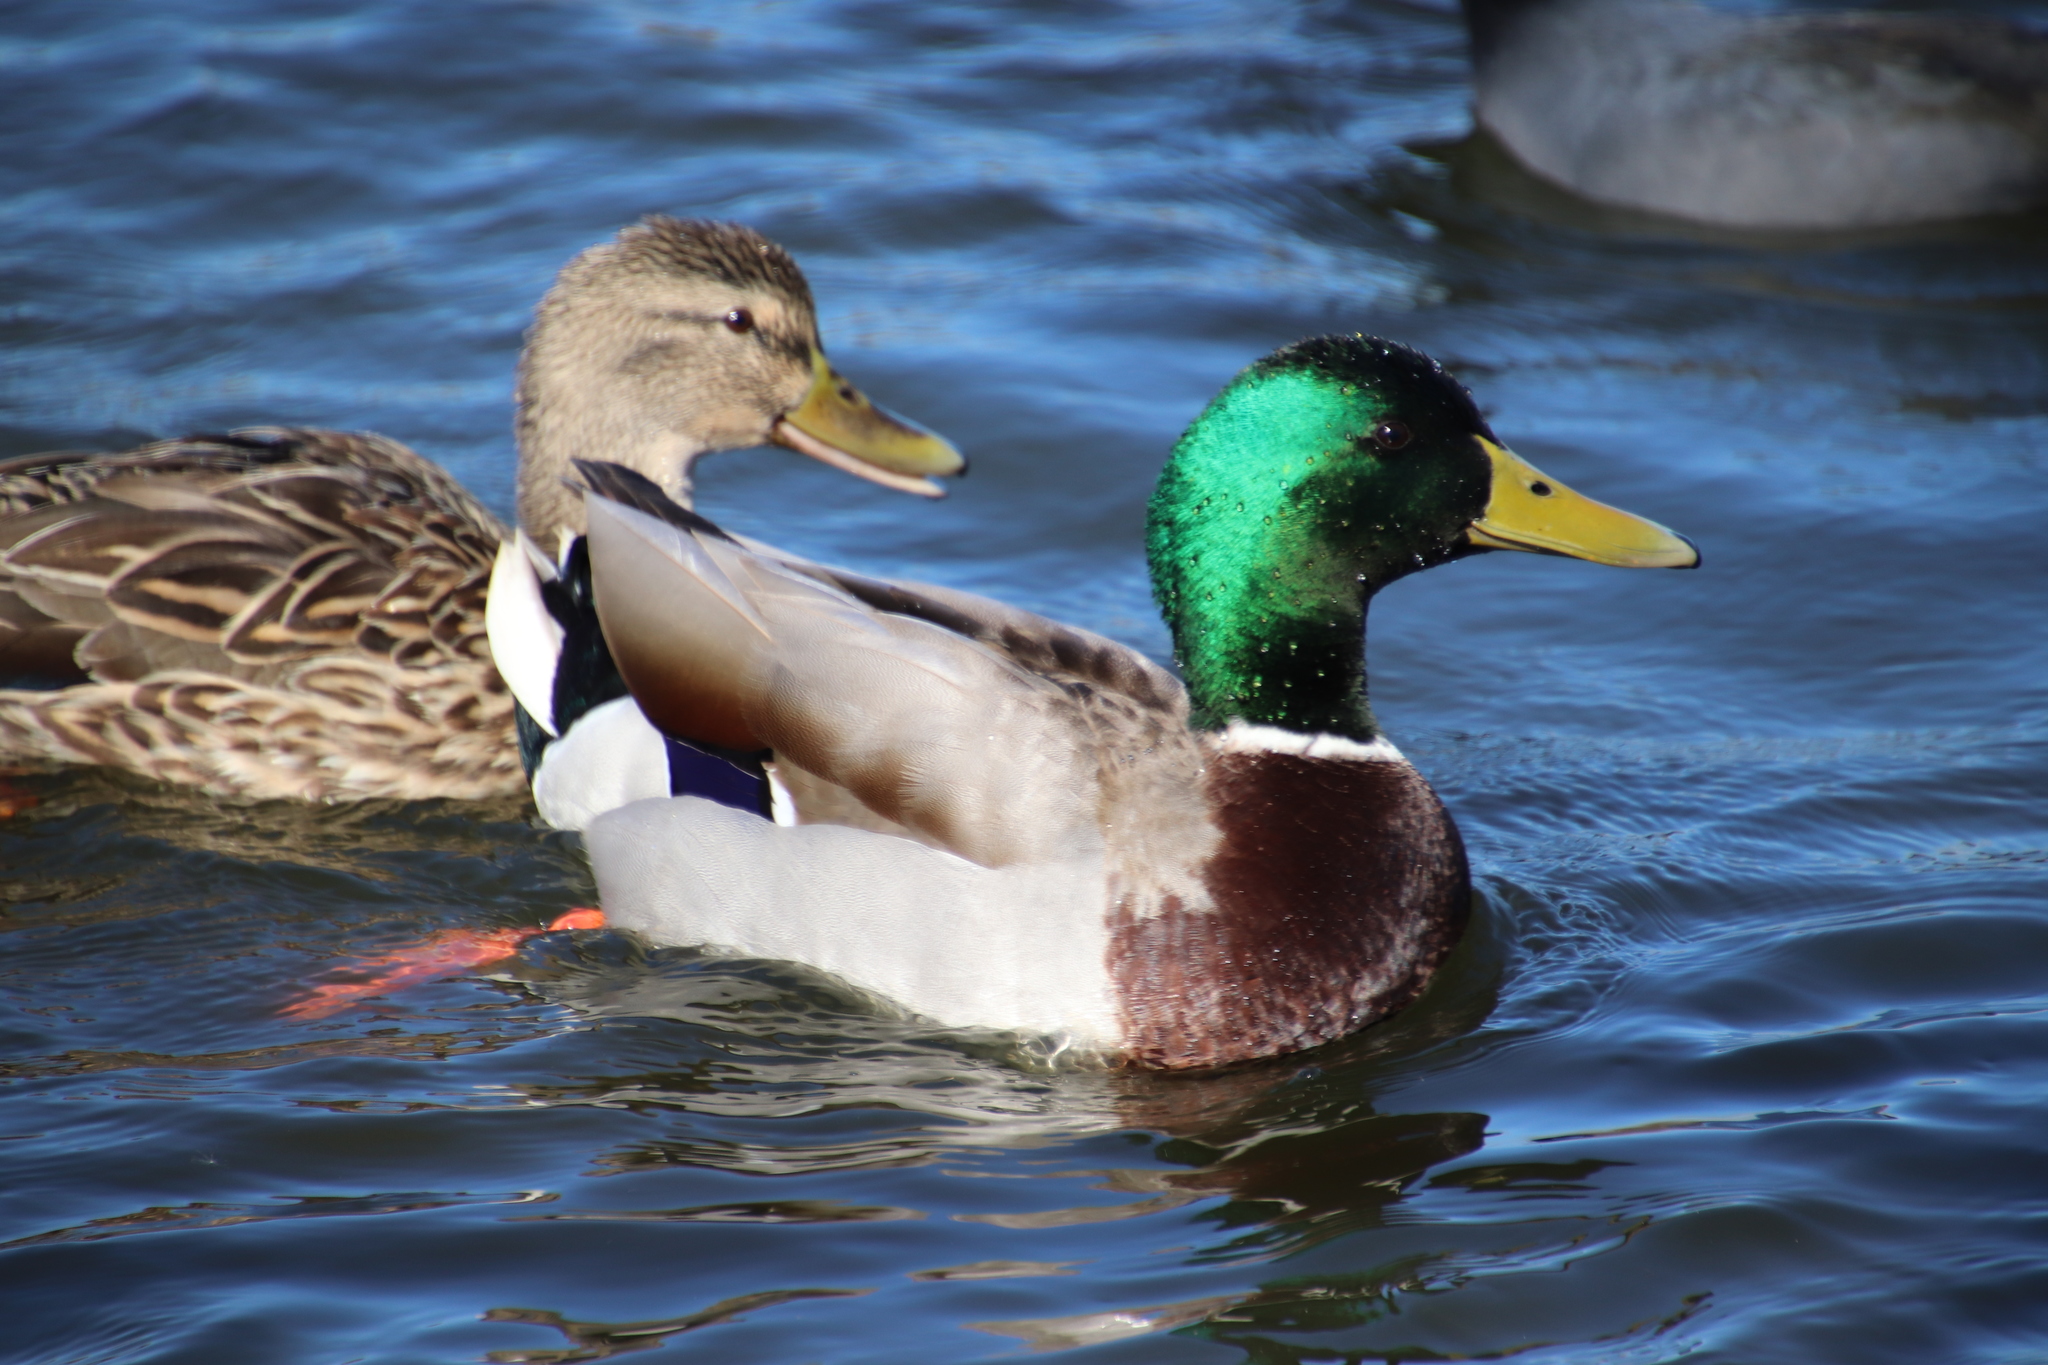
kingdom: Animalia
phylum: Chordata
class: Aves
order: Anseriformes
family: Anatidae
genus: Anas
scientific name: Anas platyrhynchos
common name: Mallard
